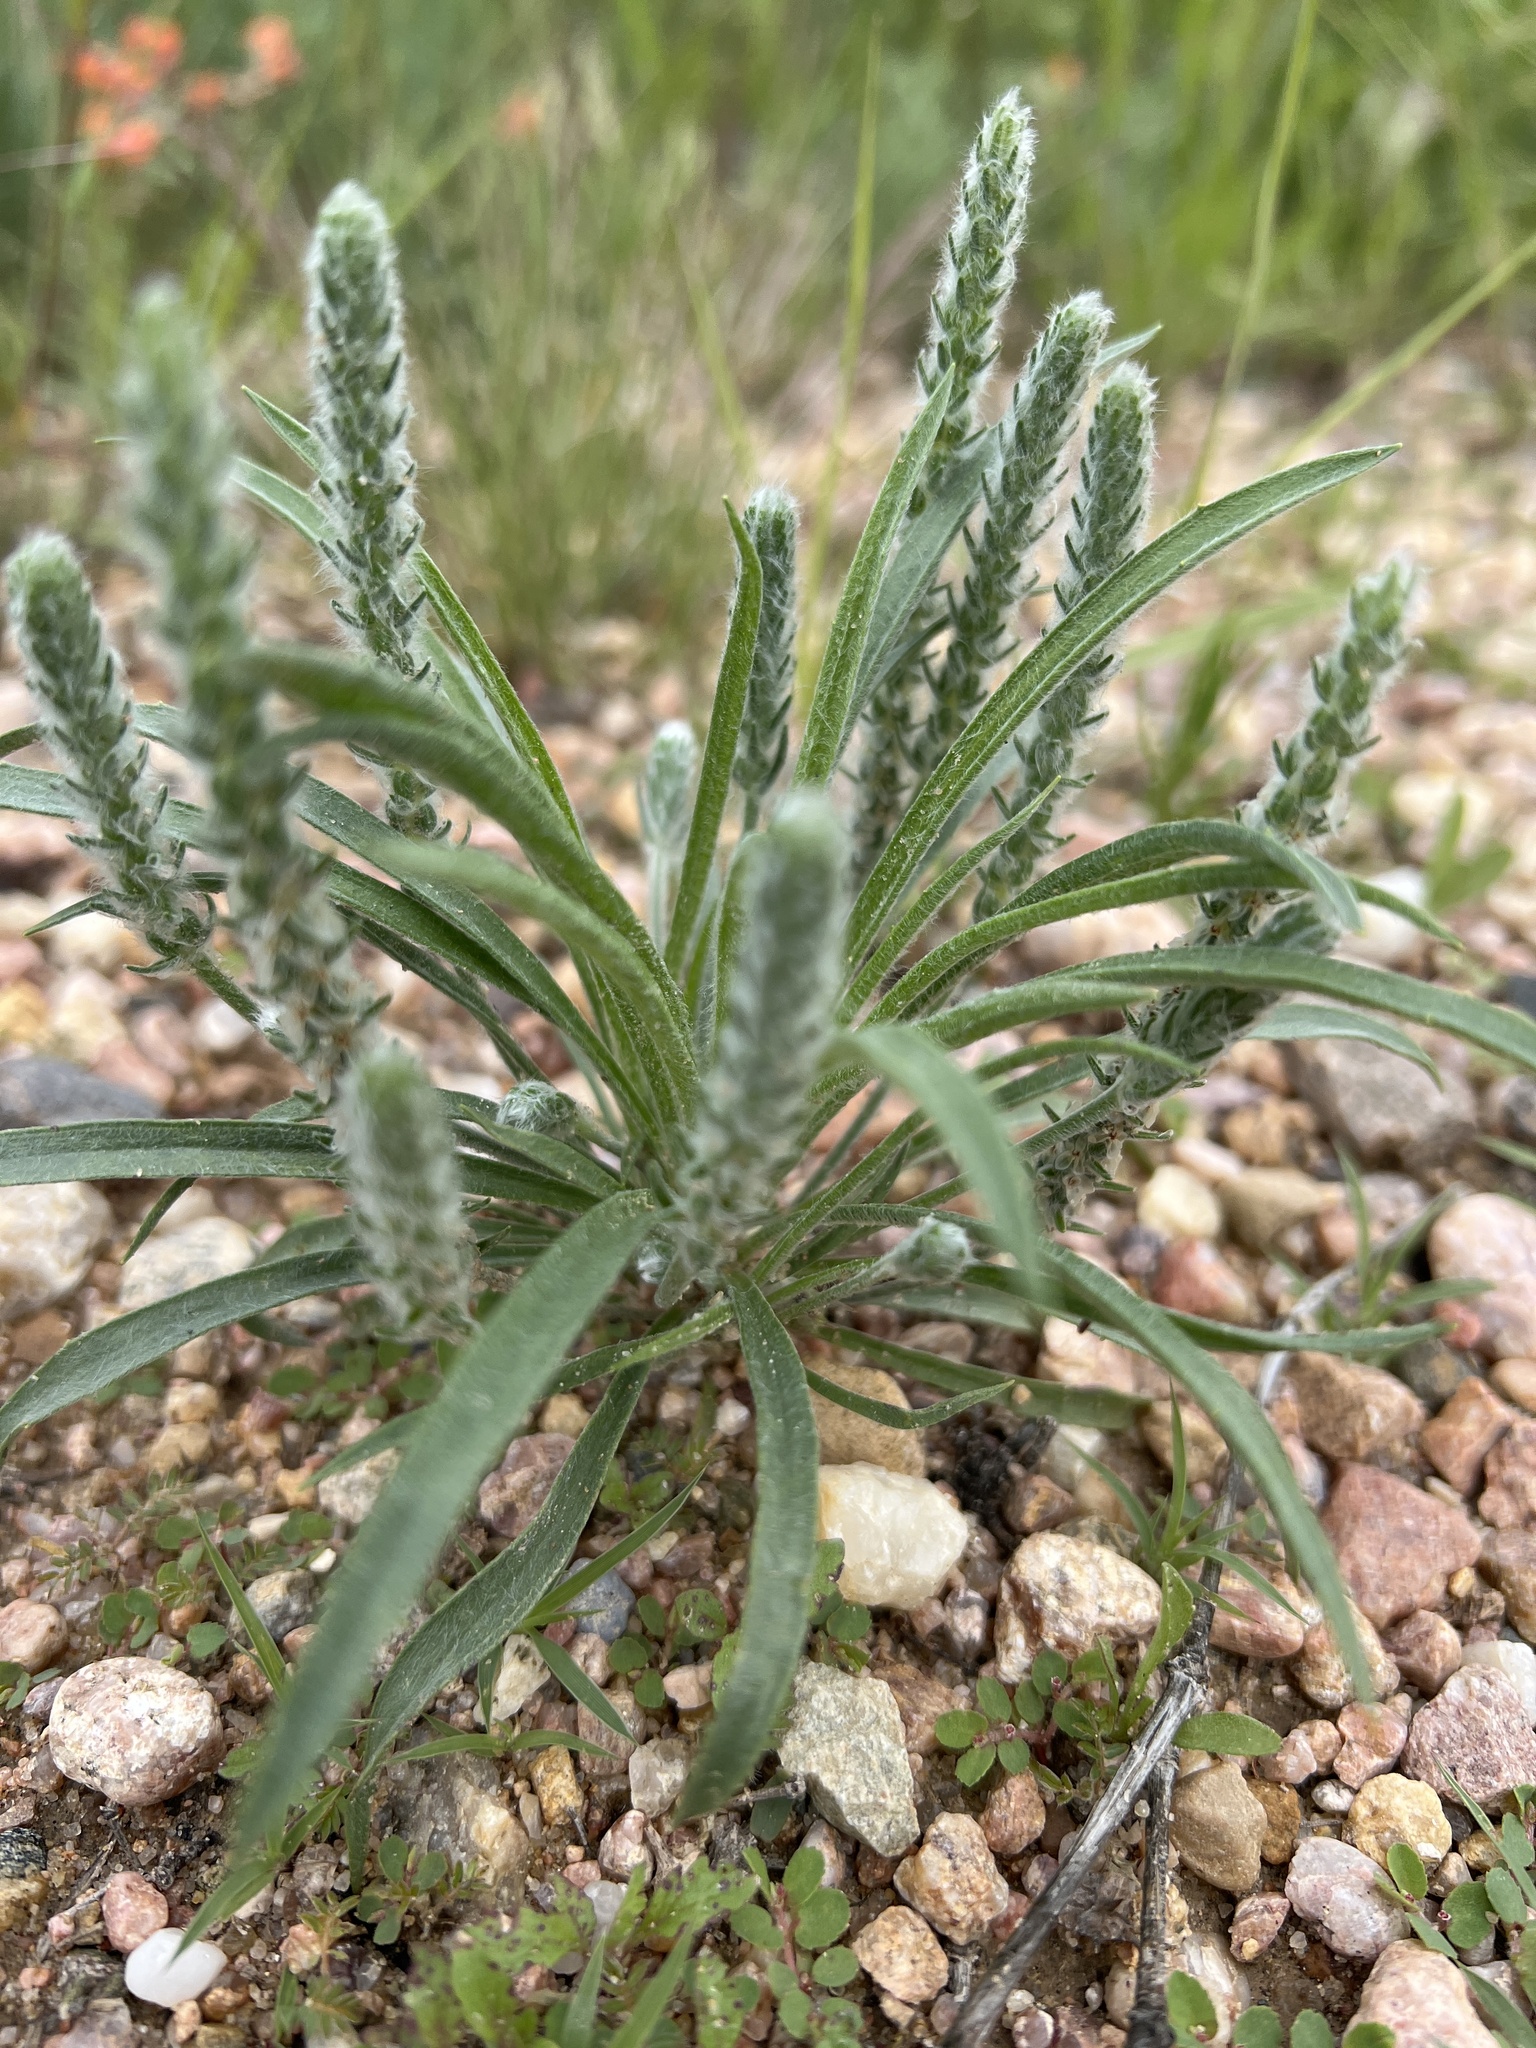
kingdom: Plantae
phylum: Tracheophyta
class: Magnoliopsida
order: Lamiales
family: Plantaginaceae
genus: Plantago
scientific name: Plantago patagonica
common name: Patagonia indian-wheat
